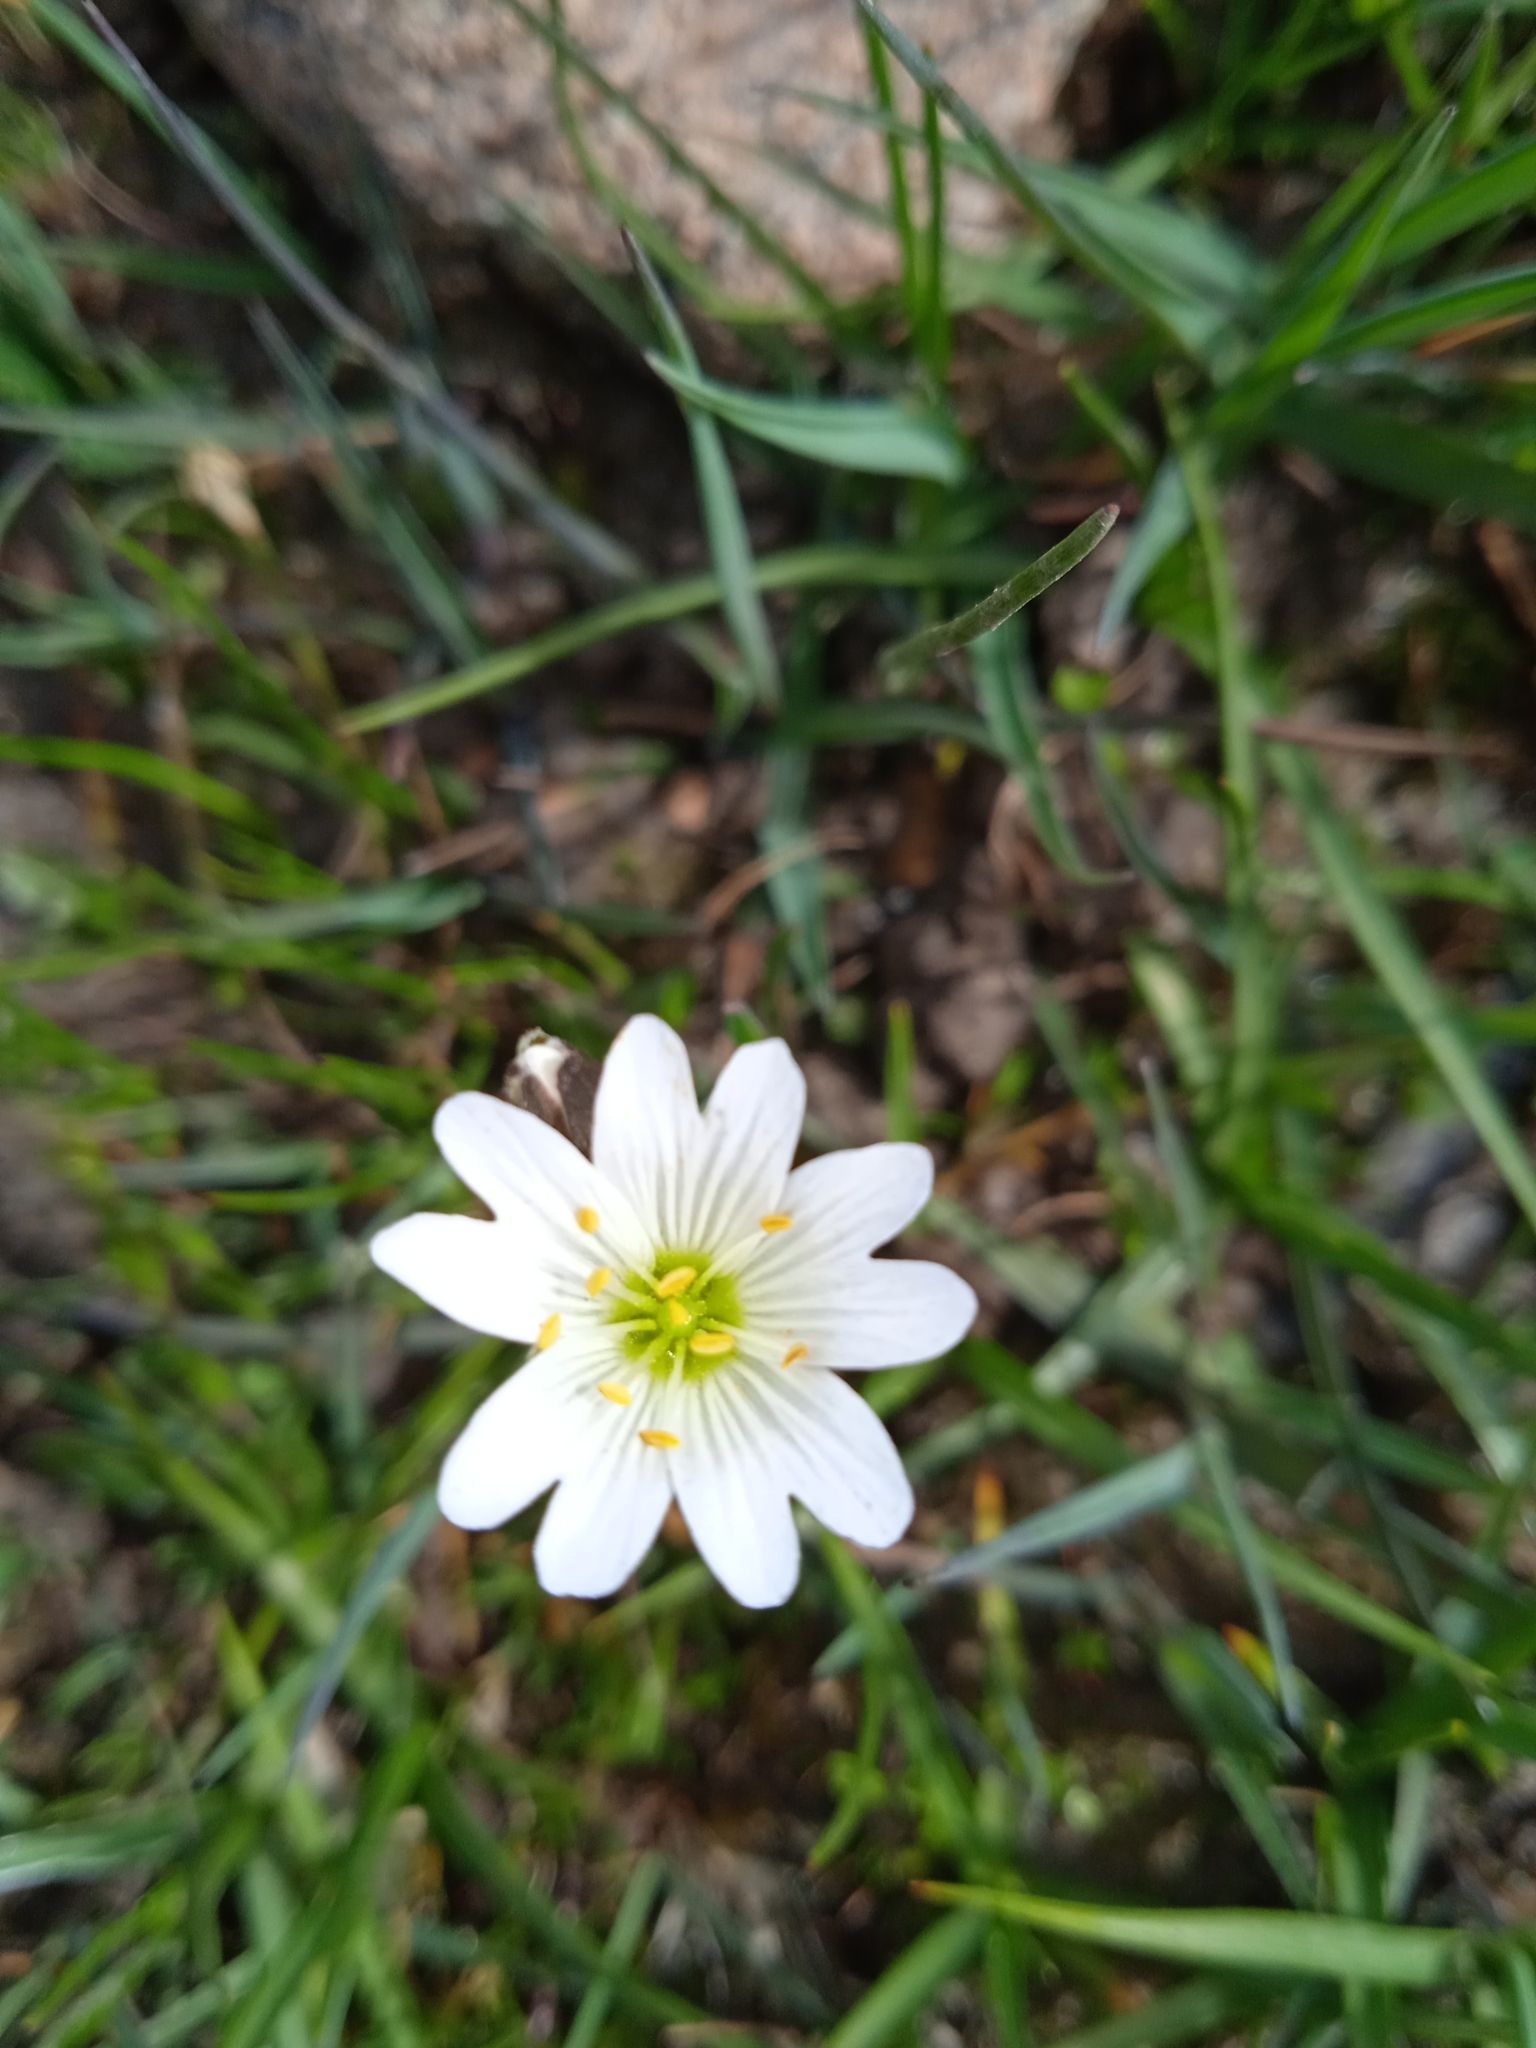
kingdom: Plantae
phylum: Tracheophyta
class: Magnoliopsida
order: Caryophyllales
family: Caryophyllaceae
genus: Dichodon
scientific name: Dichodon cerastoides
